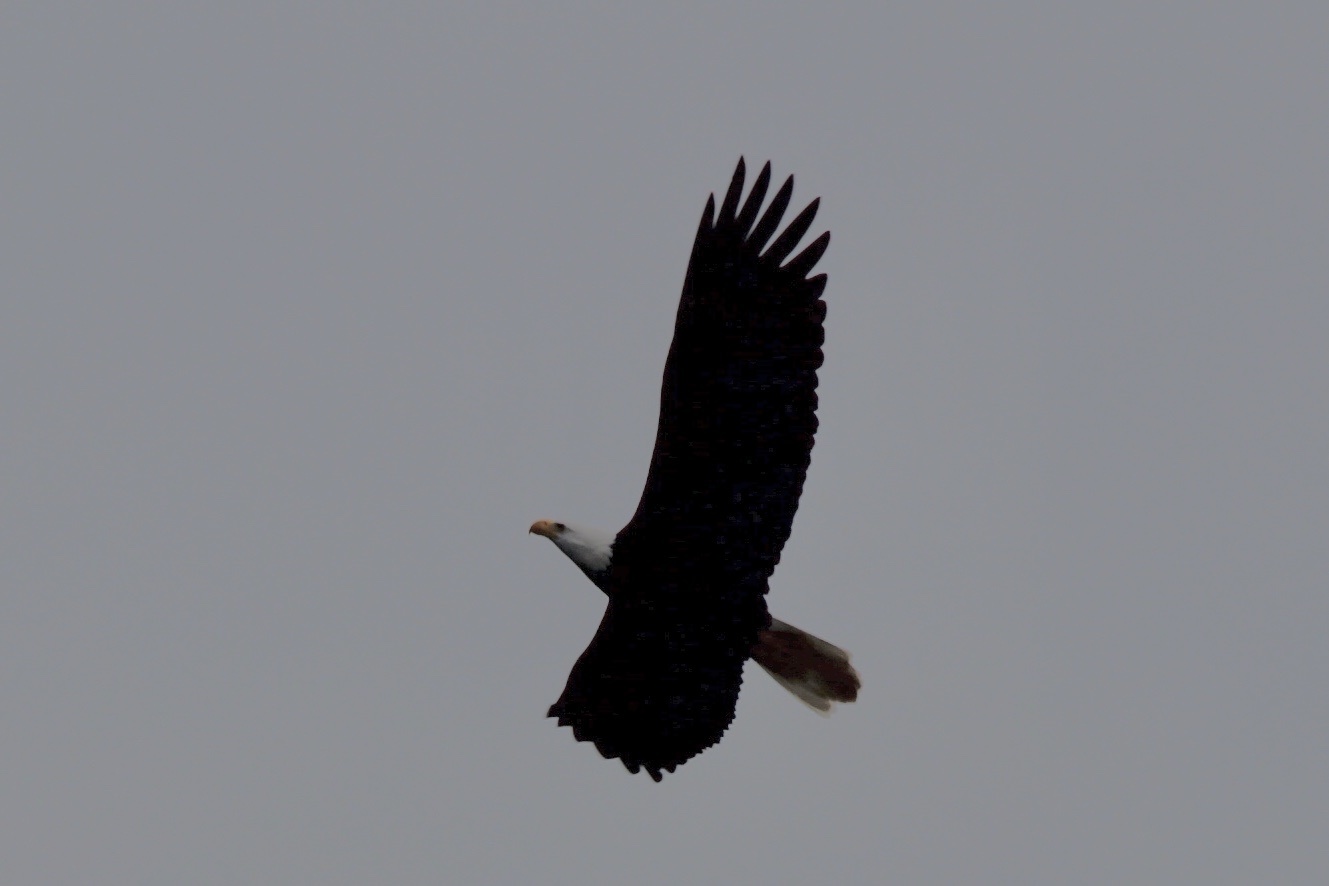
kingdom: Animalia
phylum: Chordata
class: Aves
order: Accipitriformes
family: Accipitridae
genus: Haliaeetus
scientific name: Haliaeetus leucocephalus
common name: Bald eagle
